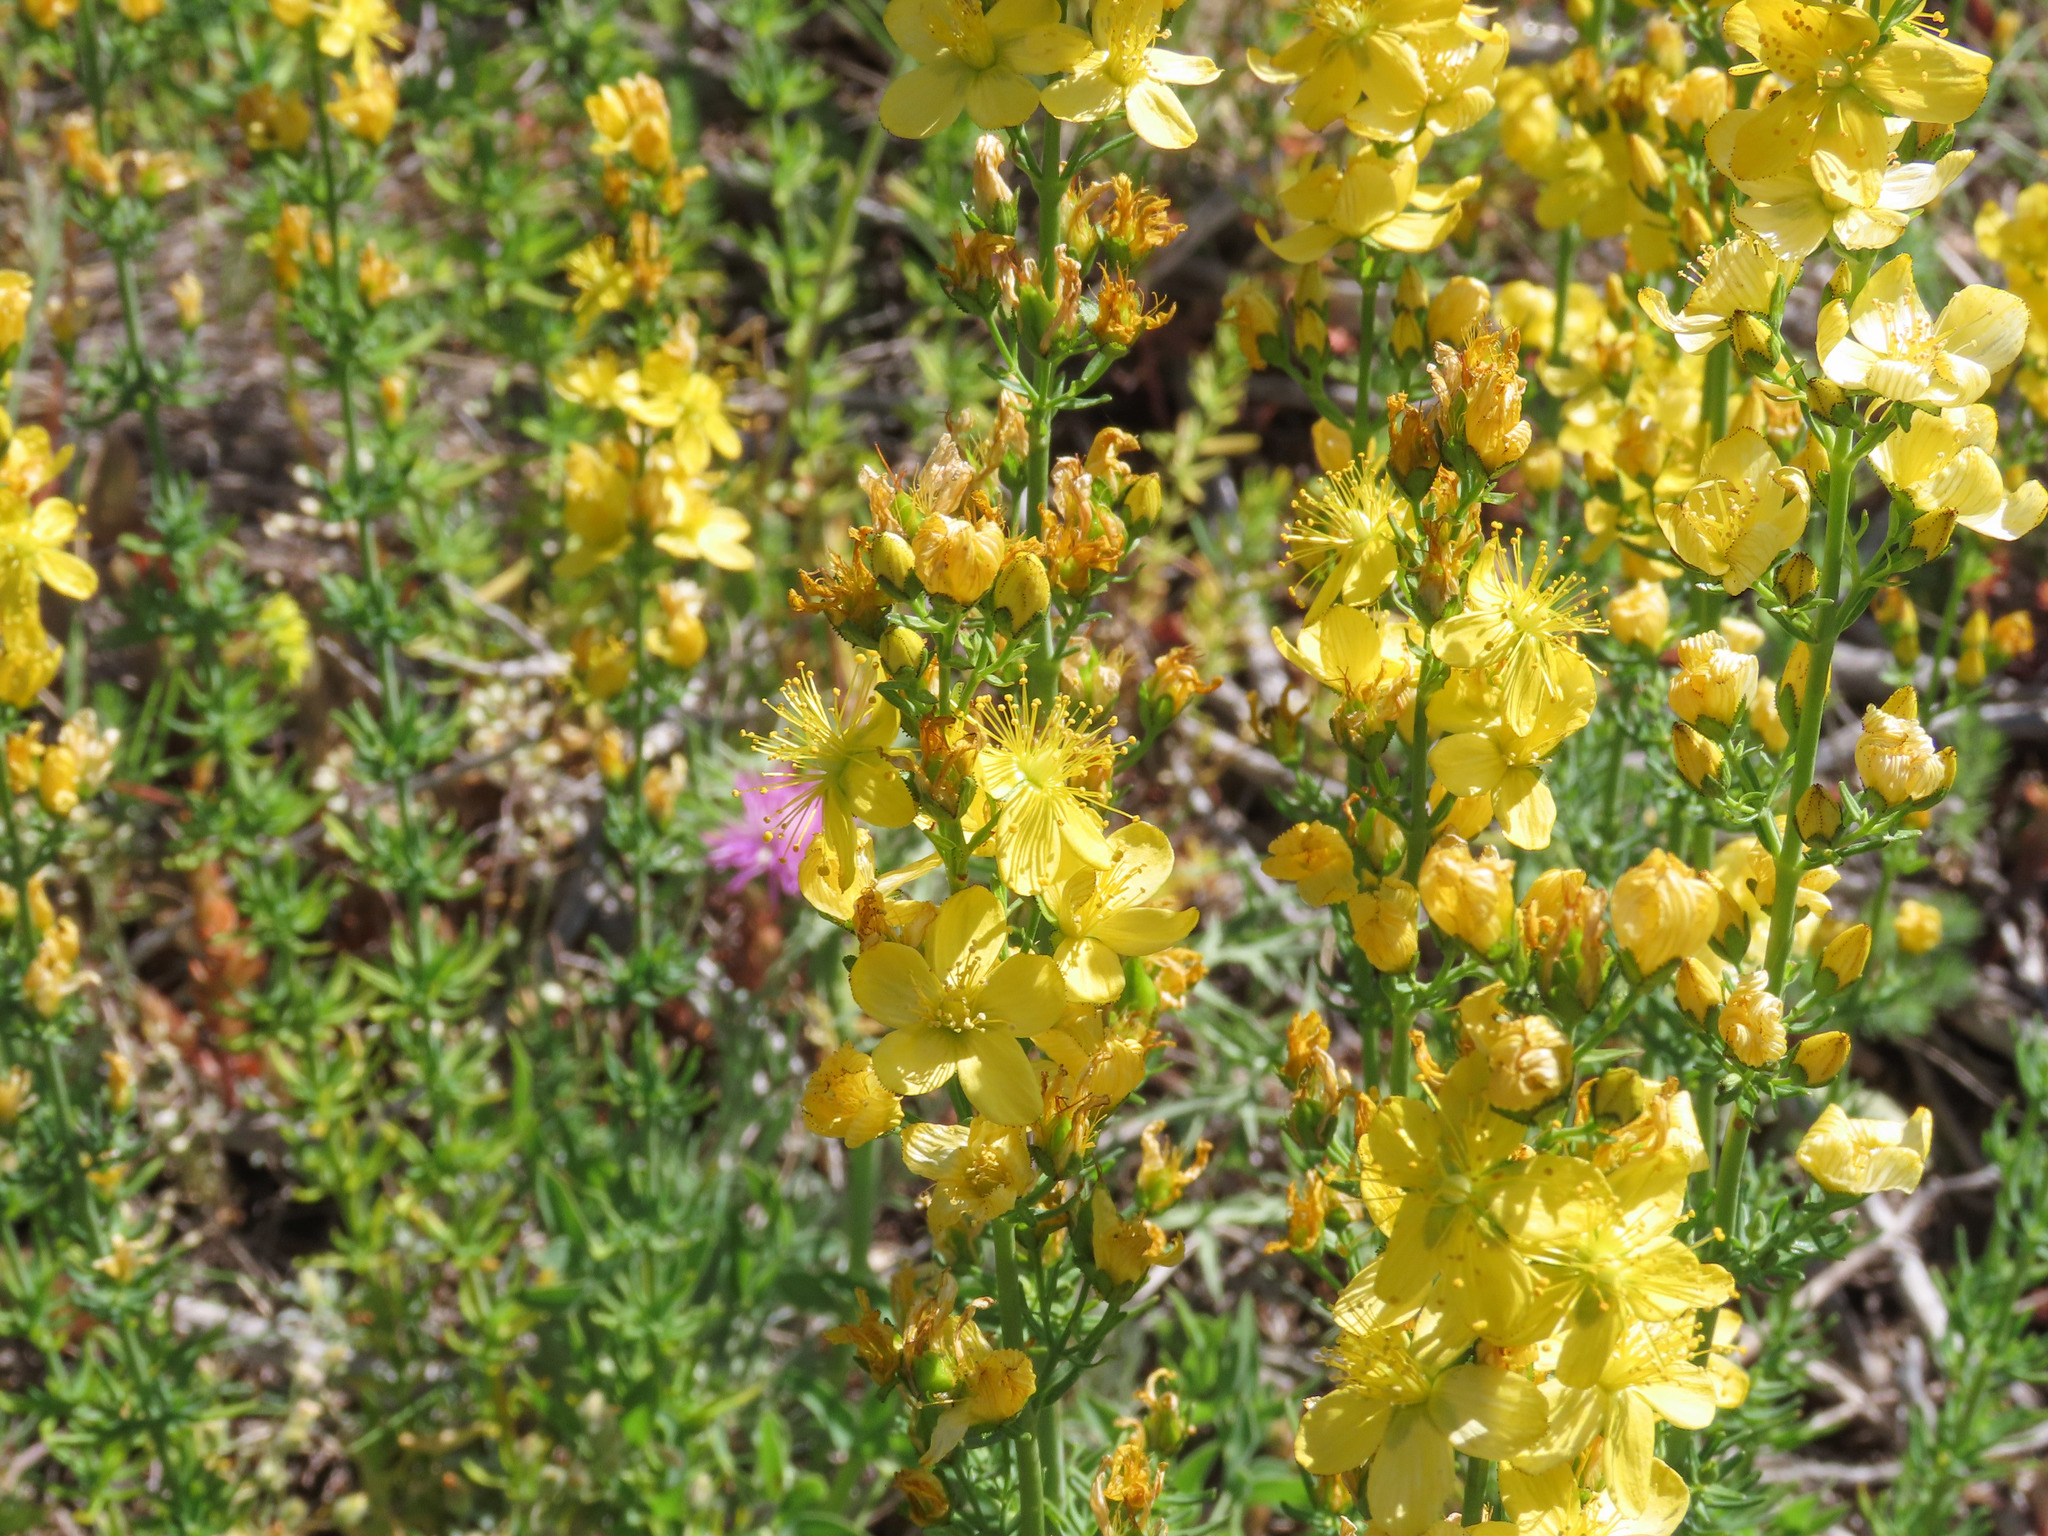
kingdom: Plantae
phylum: Tracheophyta
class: Magnoliopsida
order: Malpighiales
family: Hypericaceae
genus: Hypericum
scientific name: Hypericum hyssopifolium
